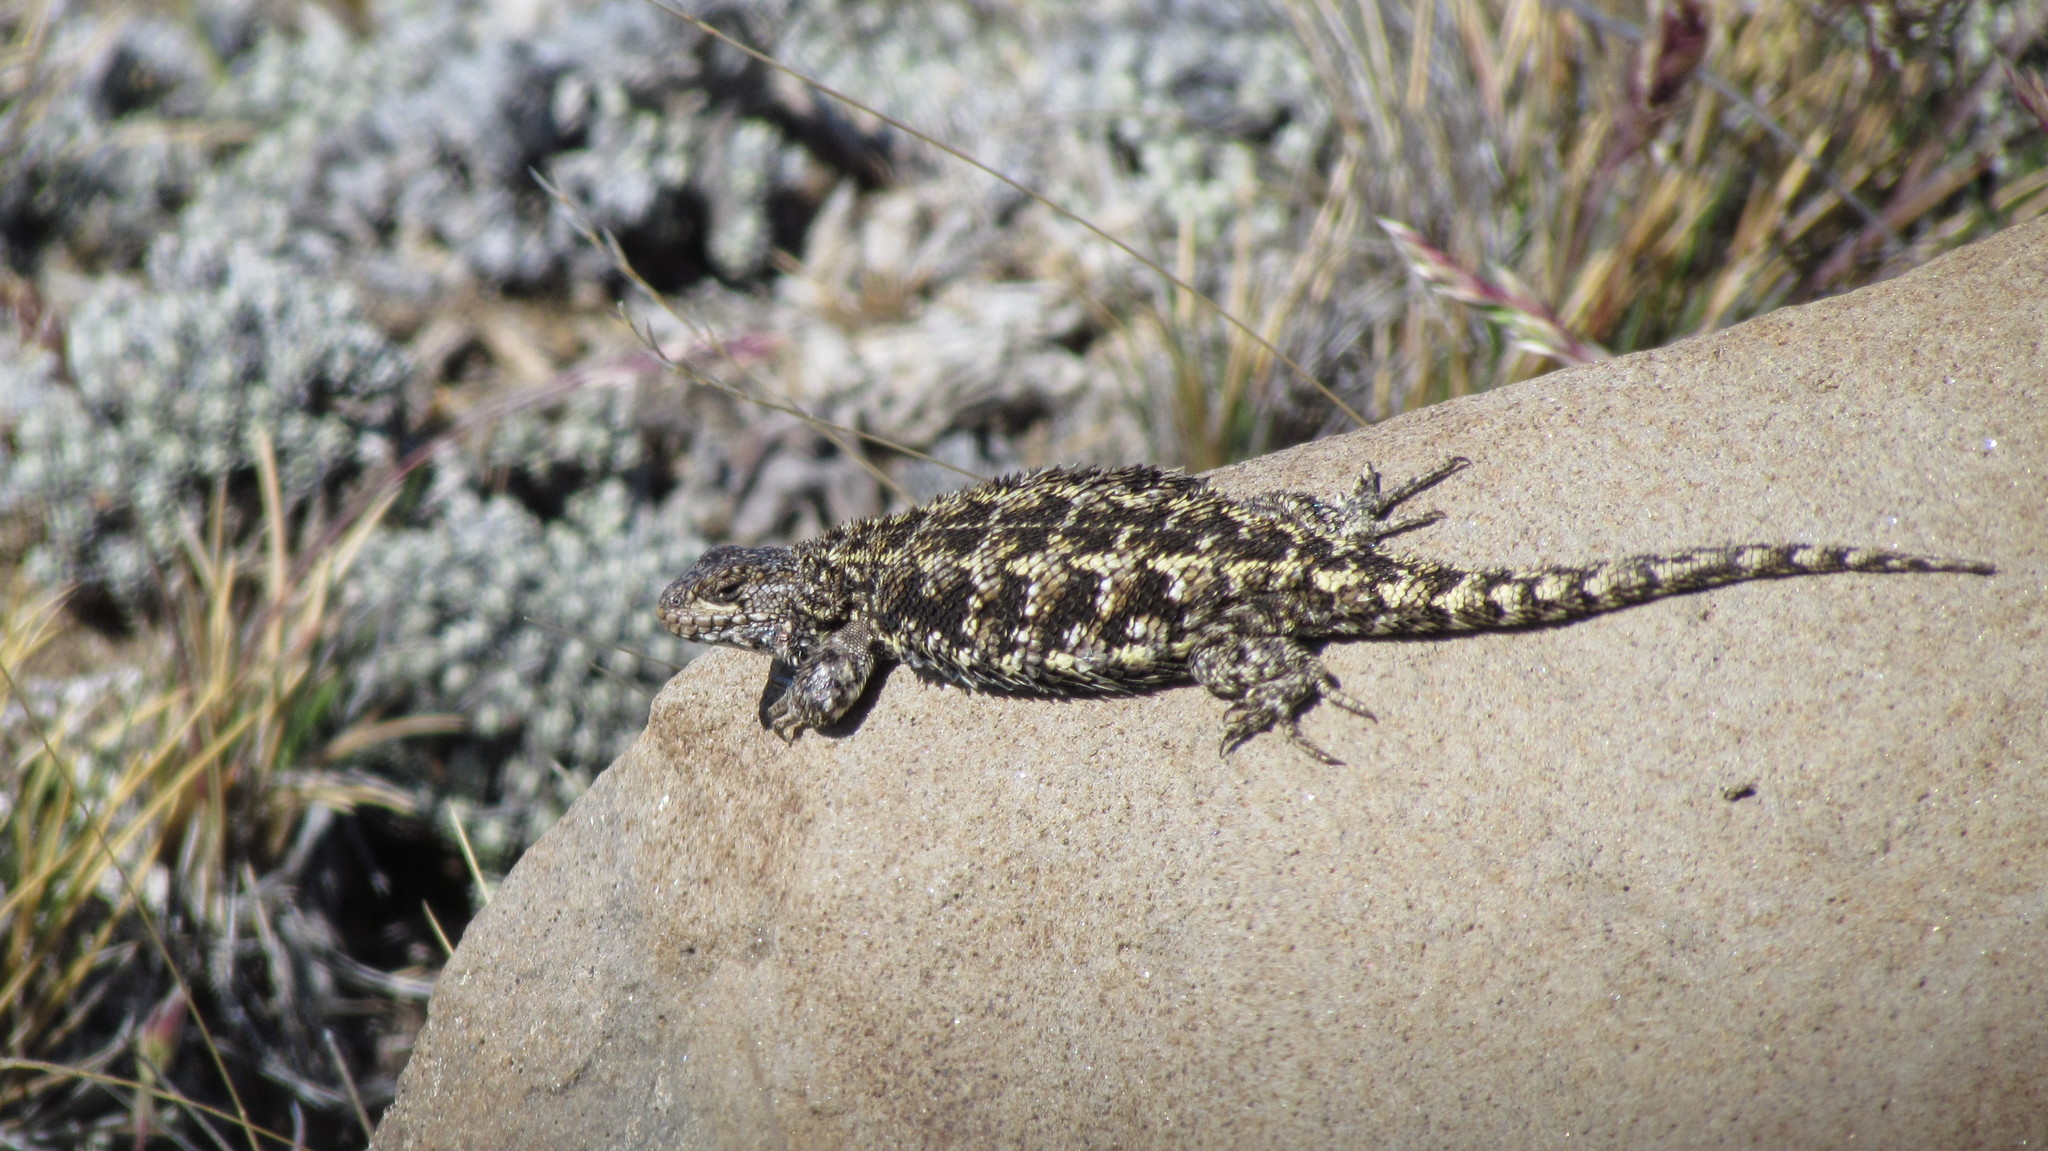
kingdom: Animalia
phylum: Chordata
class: Squamata
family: Liolaemidae
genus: Liolaemus
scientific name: Liolaemus hatcheri
